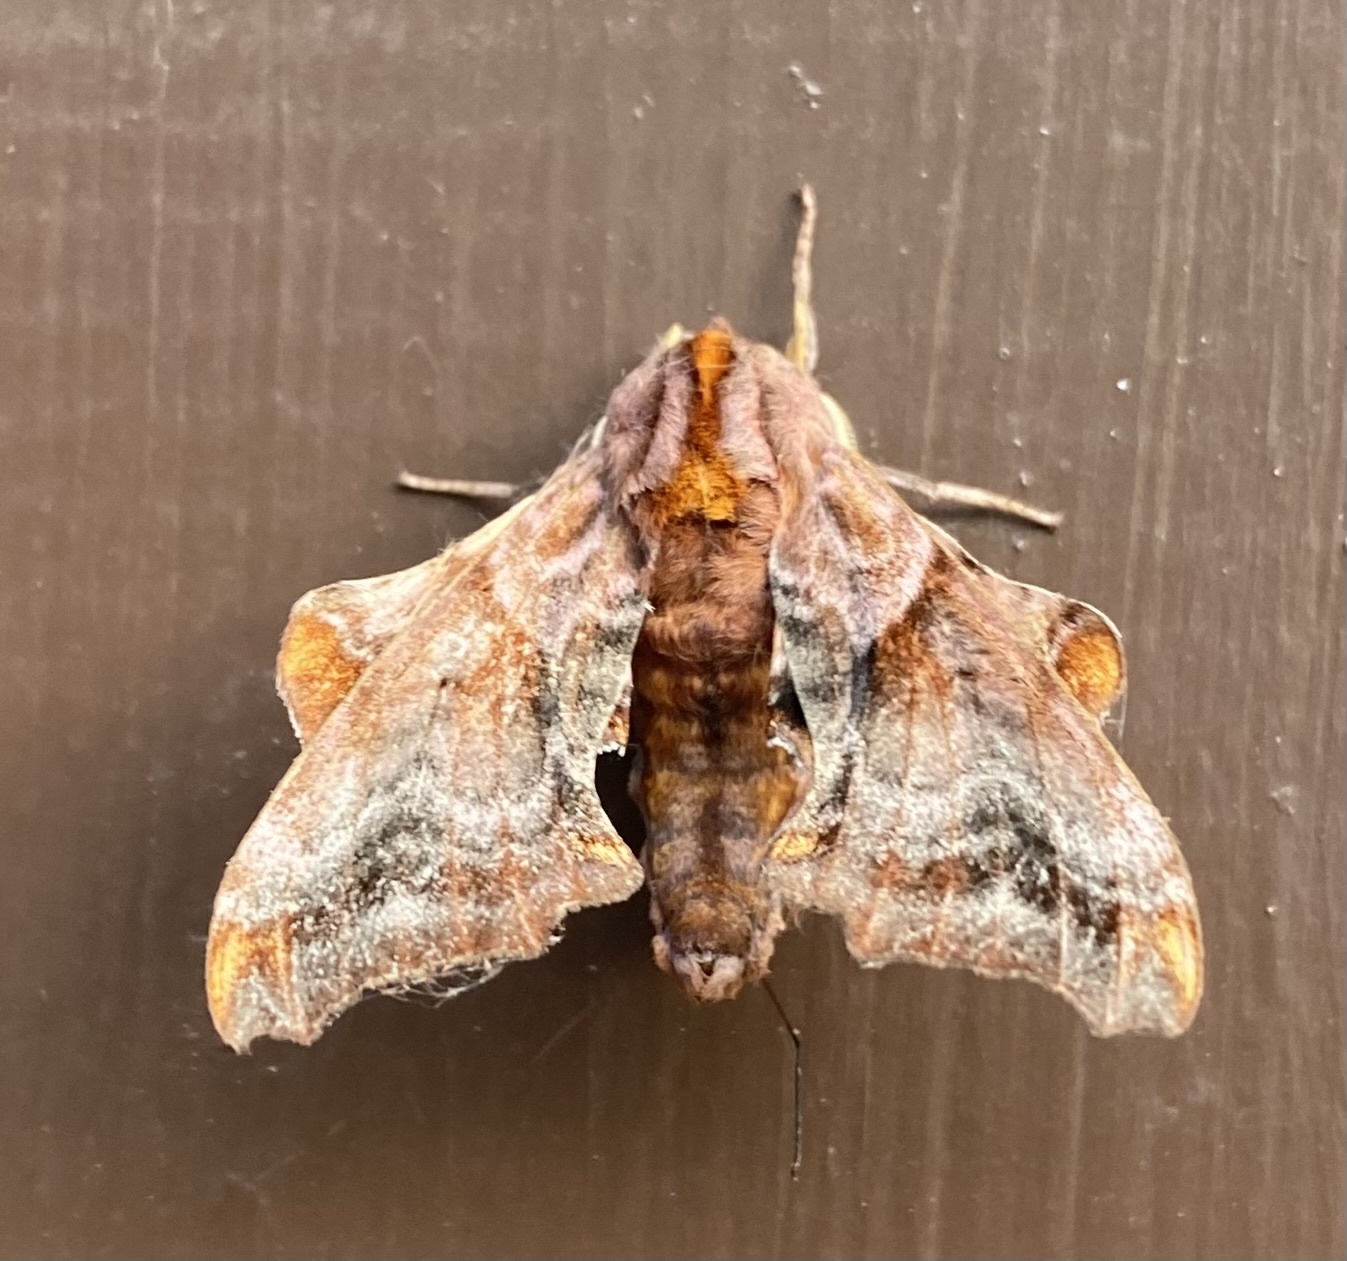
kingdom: Animalia
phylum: Arthropoda
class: Insecta
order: Lepidoptera
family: Sphingidae
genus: Paonias
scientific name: Paonias myops
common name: Small-eyed sphinx
